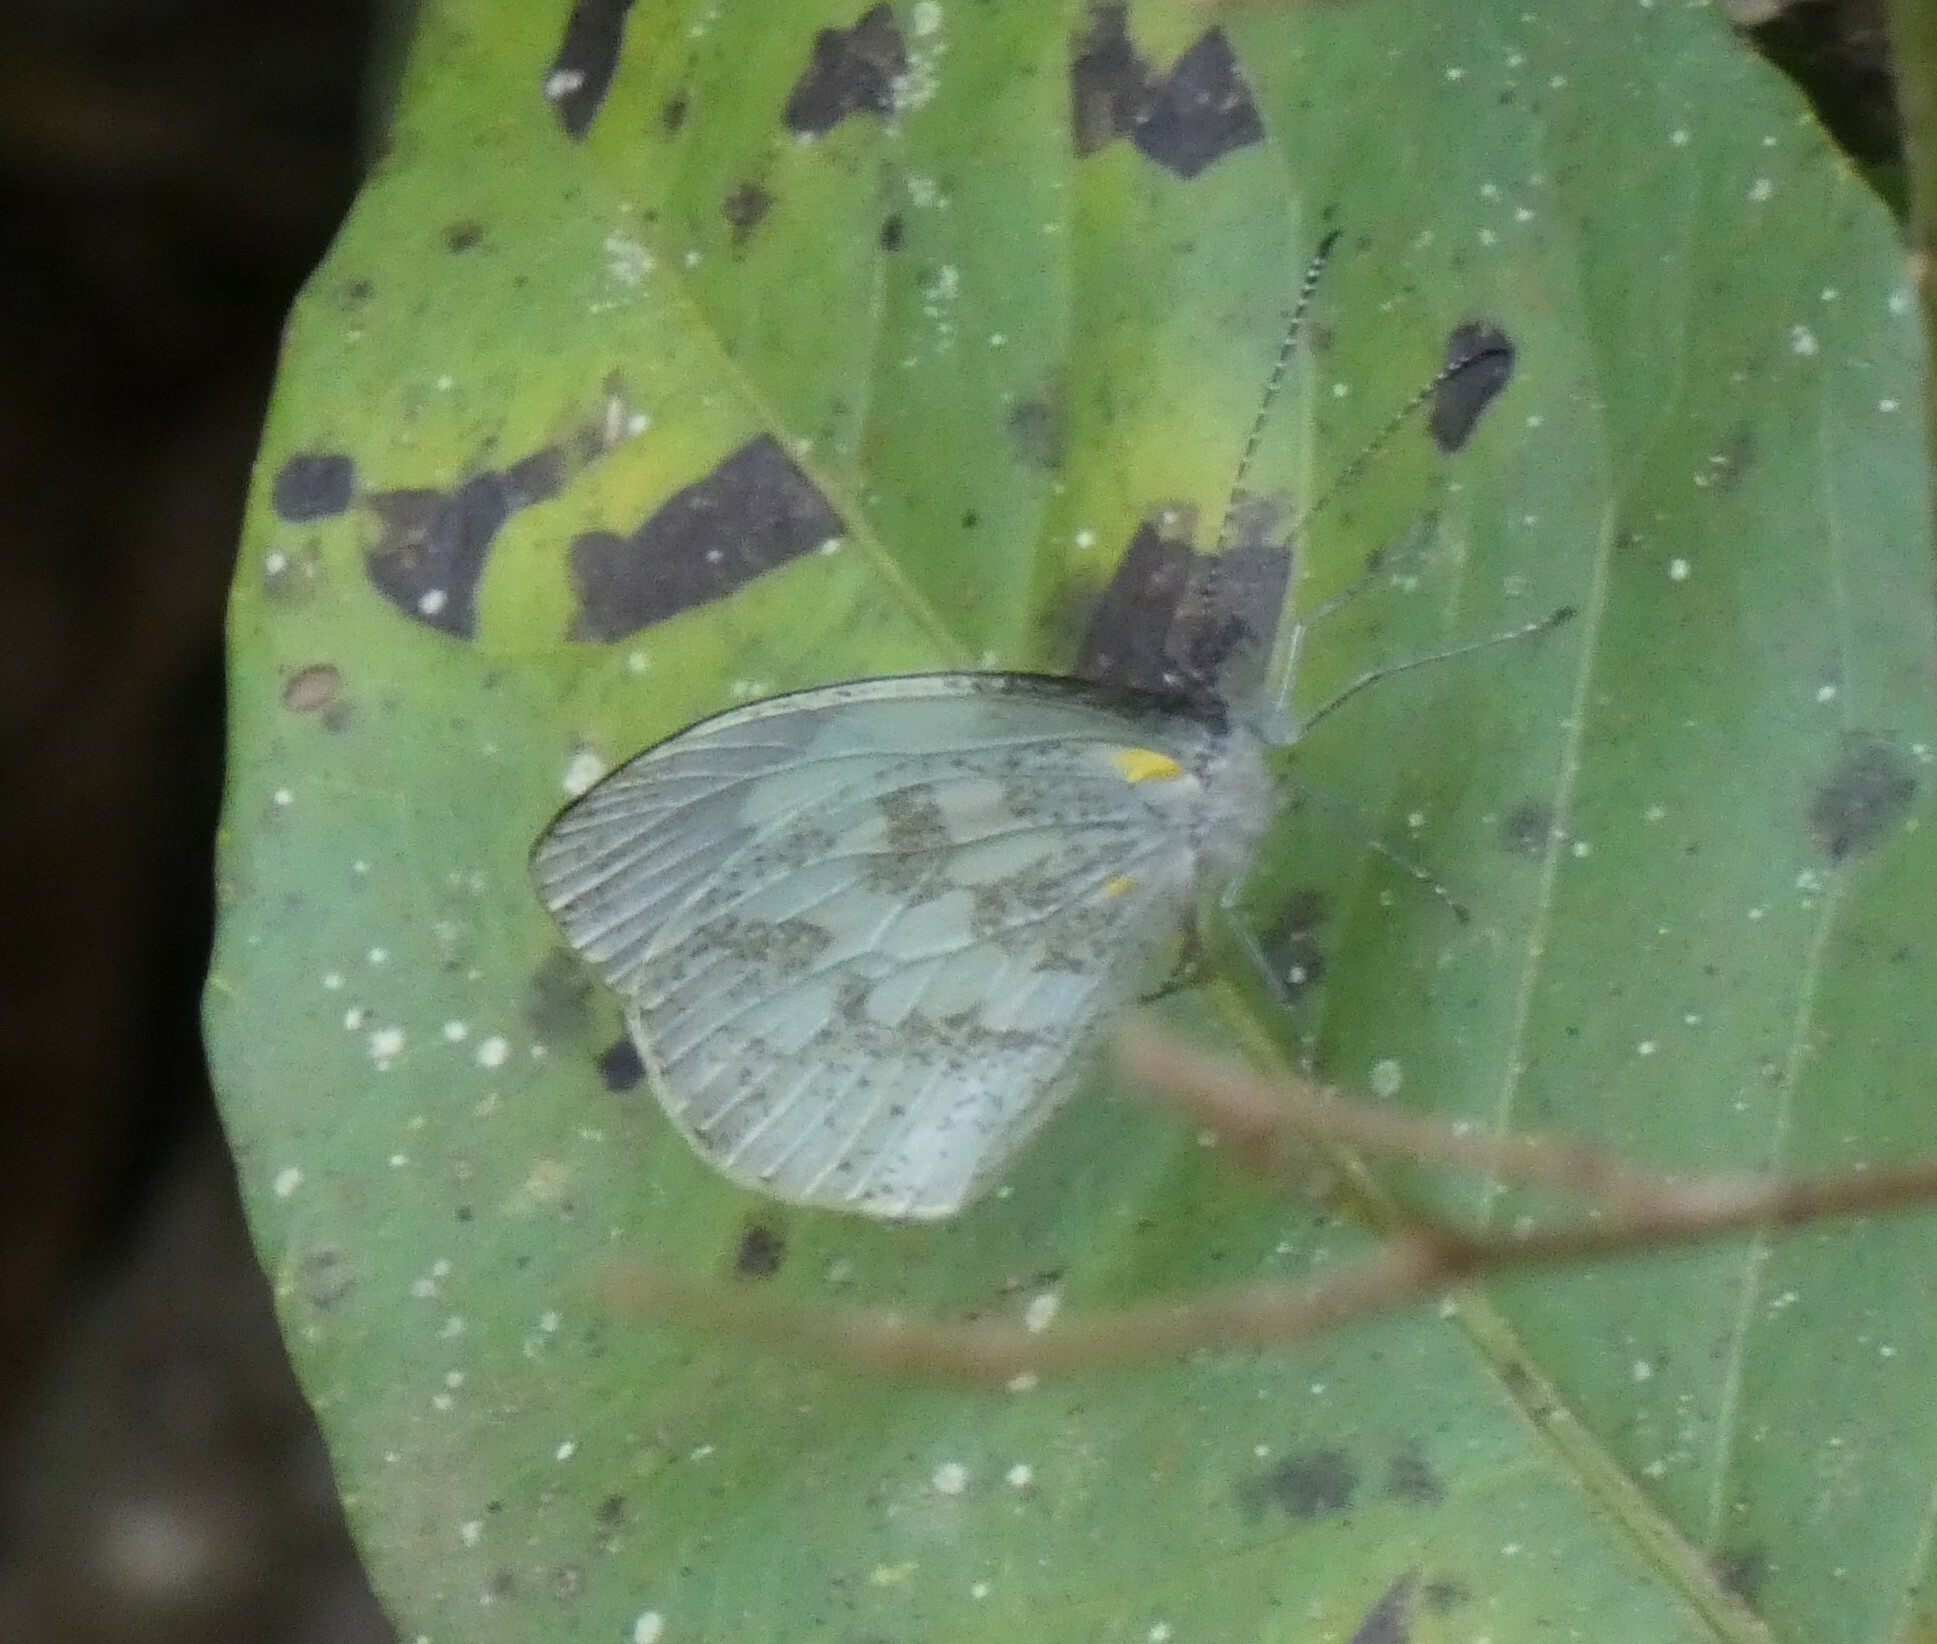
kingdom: Animalia
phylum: Arthropoda
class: Insecta
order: Lepidoptera
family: Pieridae
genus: Dismorphia
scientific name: Dismorphia thermesia
